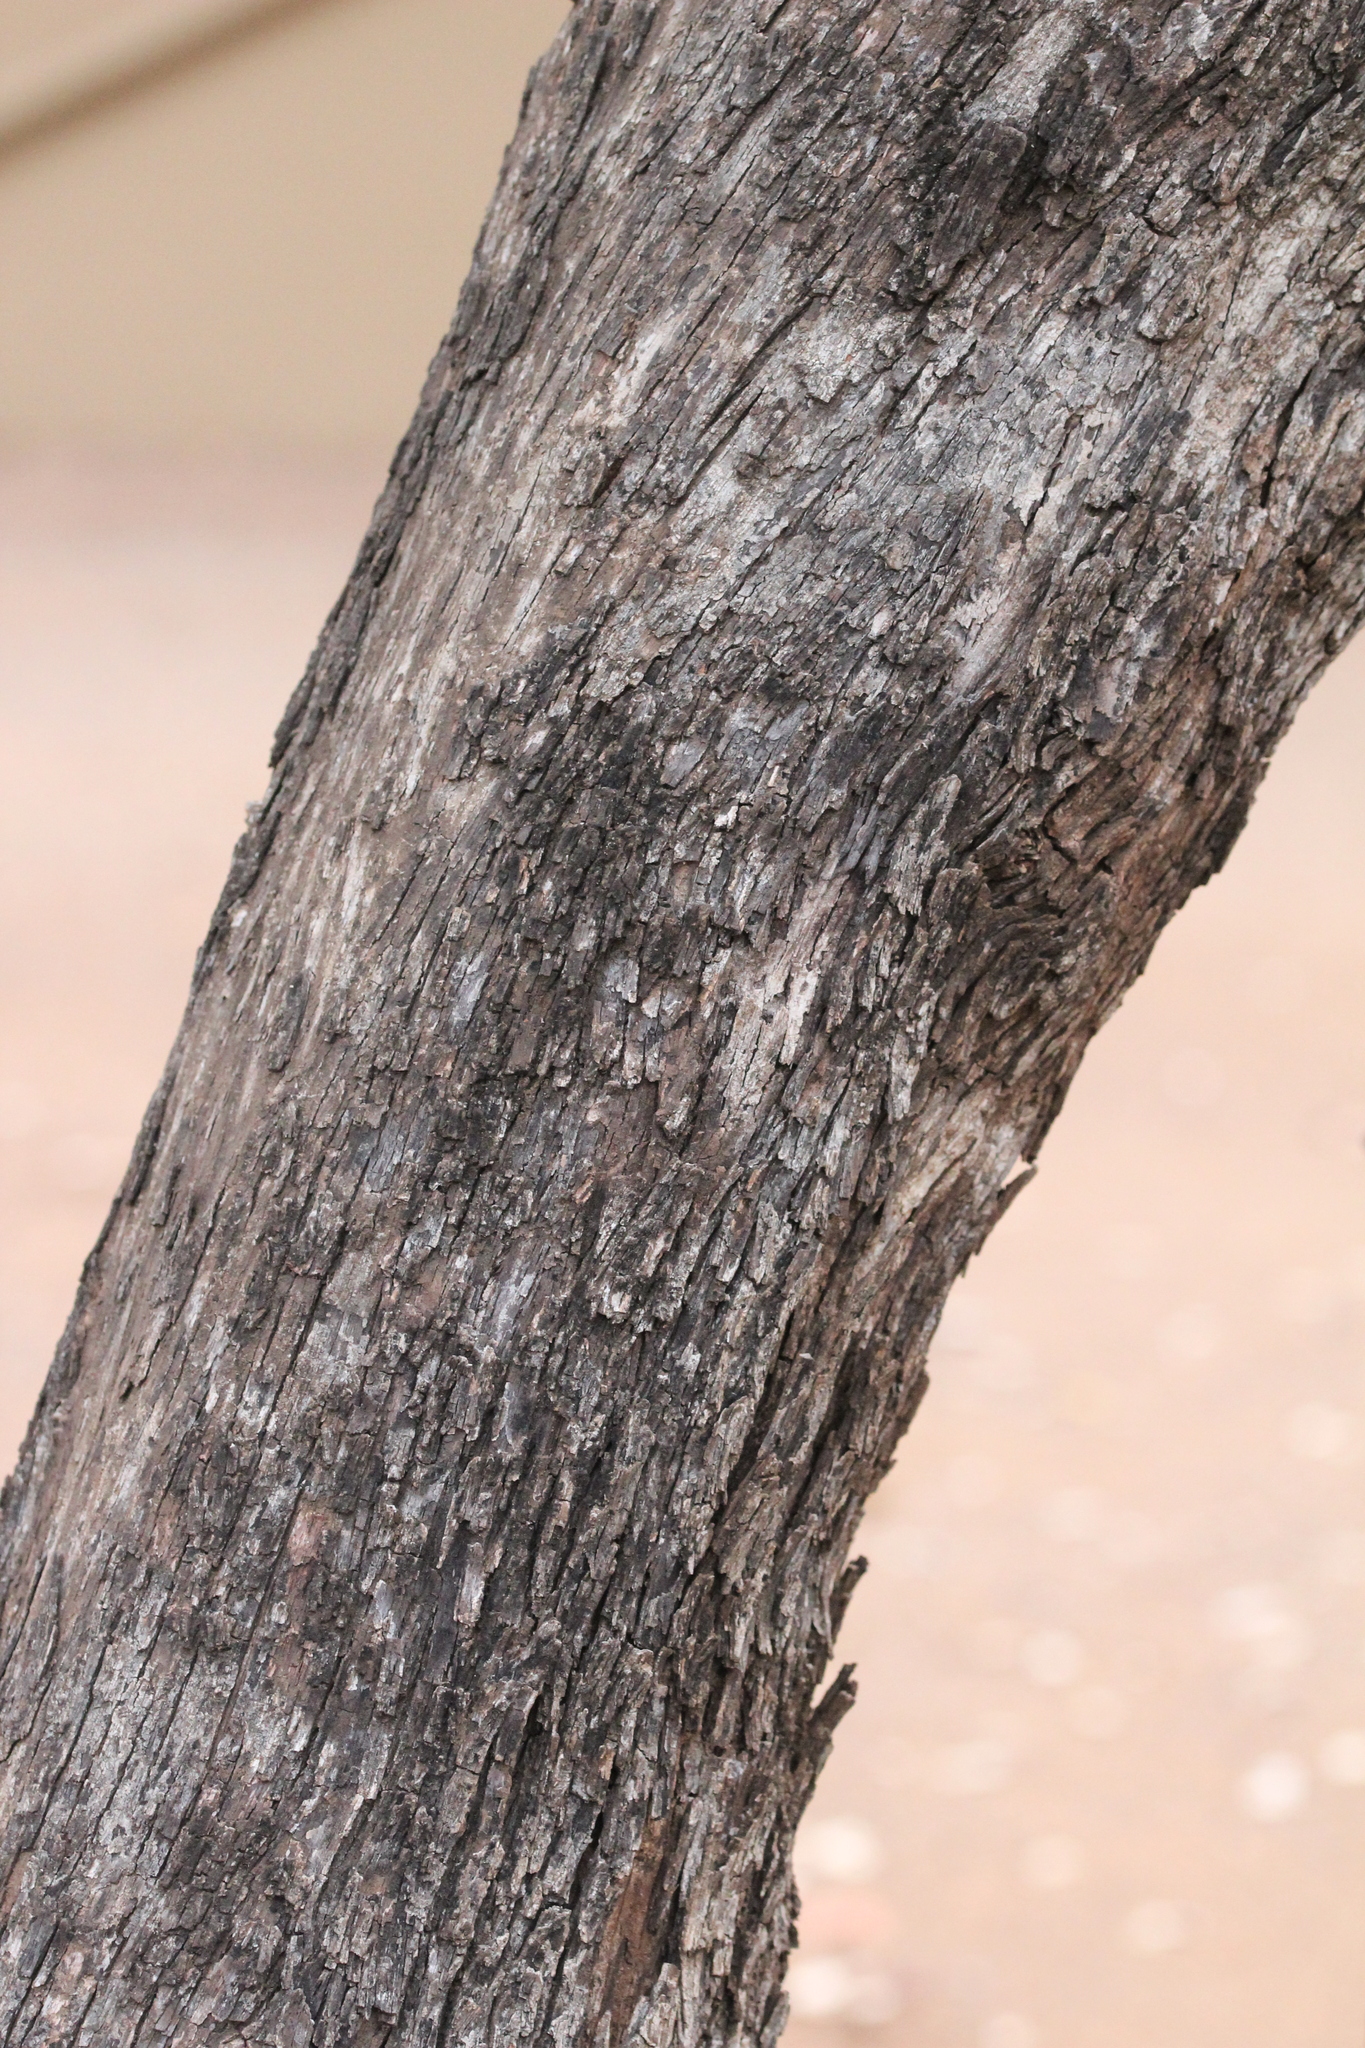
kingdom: Plantae
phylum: Tracheophyta
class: Magnoliopsida
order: Myrtales
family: Combretaceae
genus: Combretum
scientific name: Combretum hereroense
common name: Russet bushwillow
